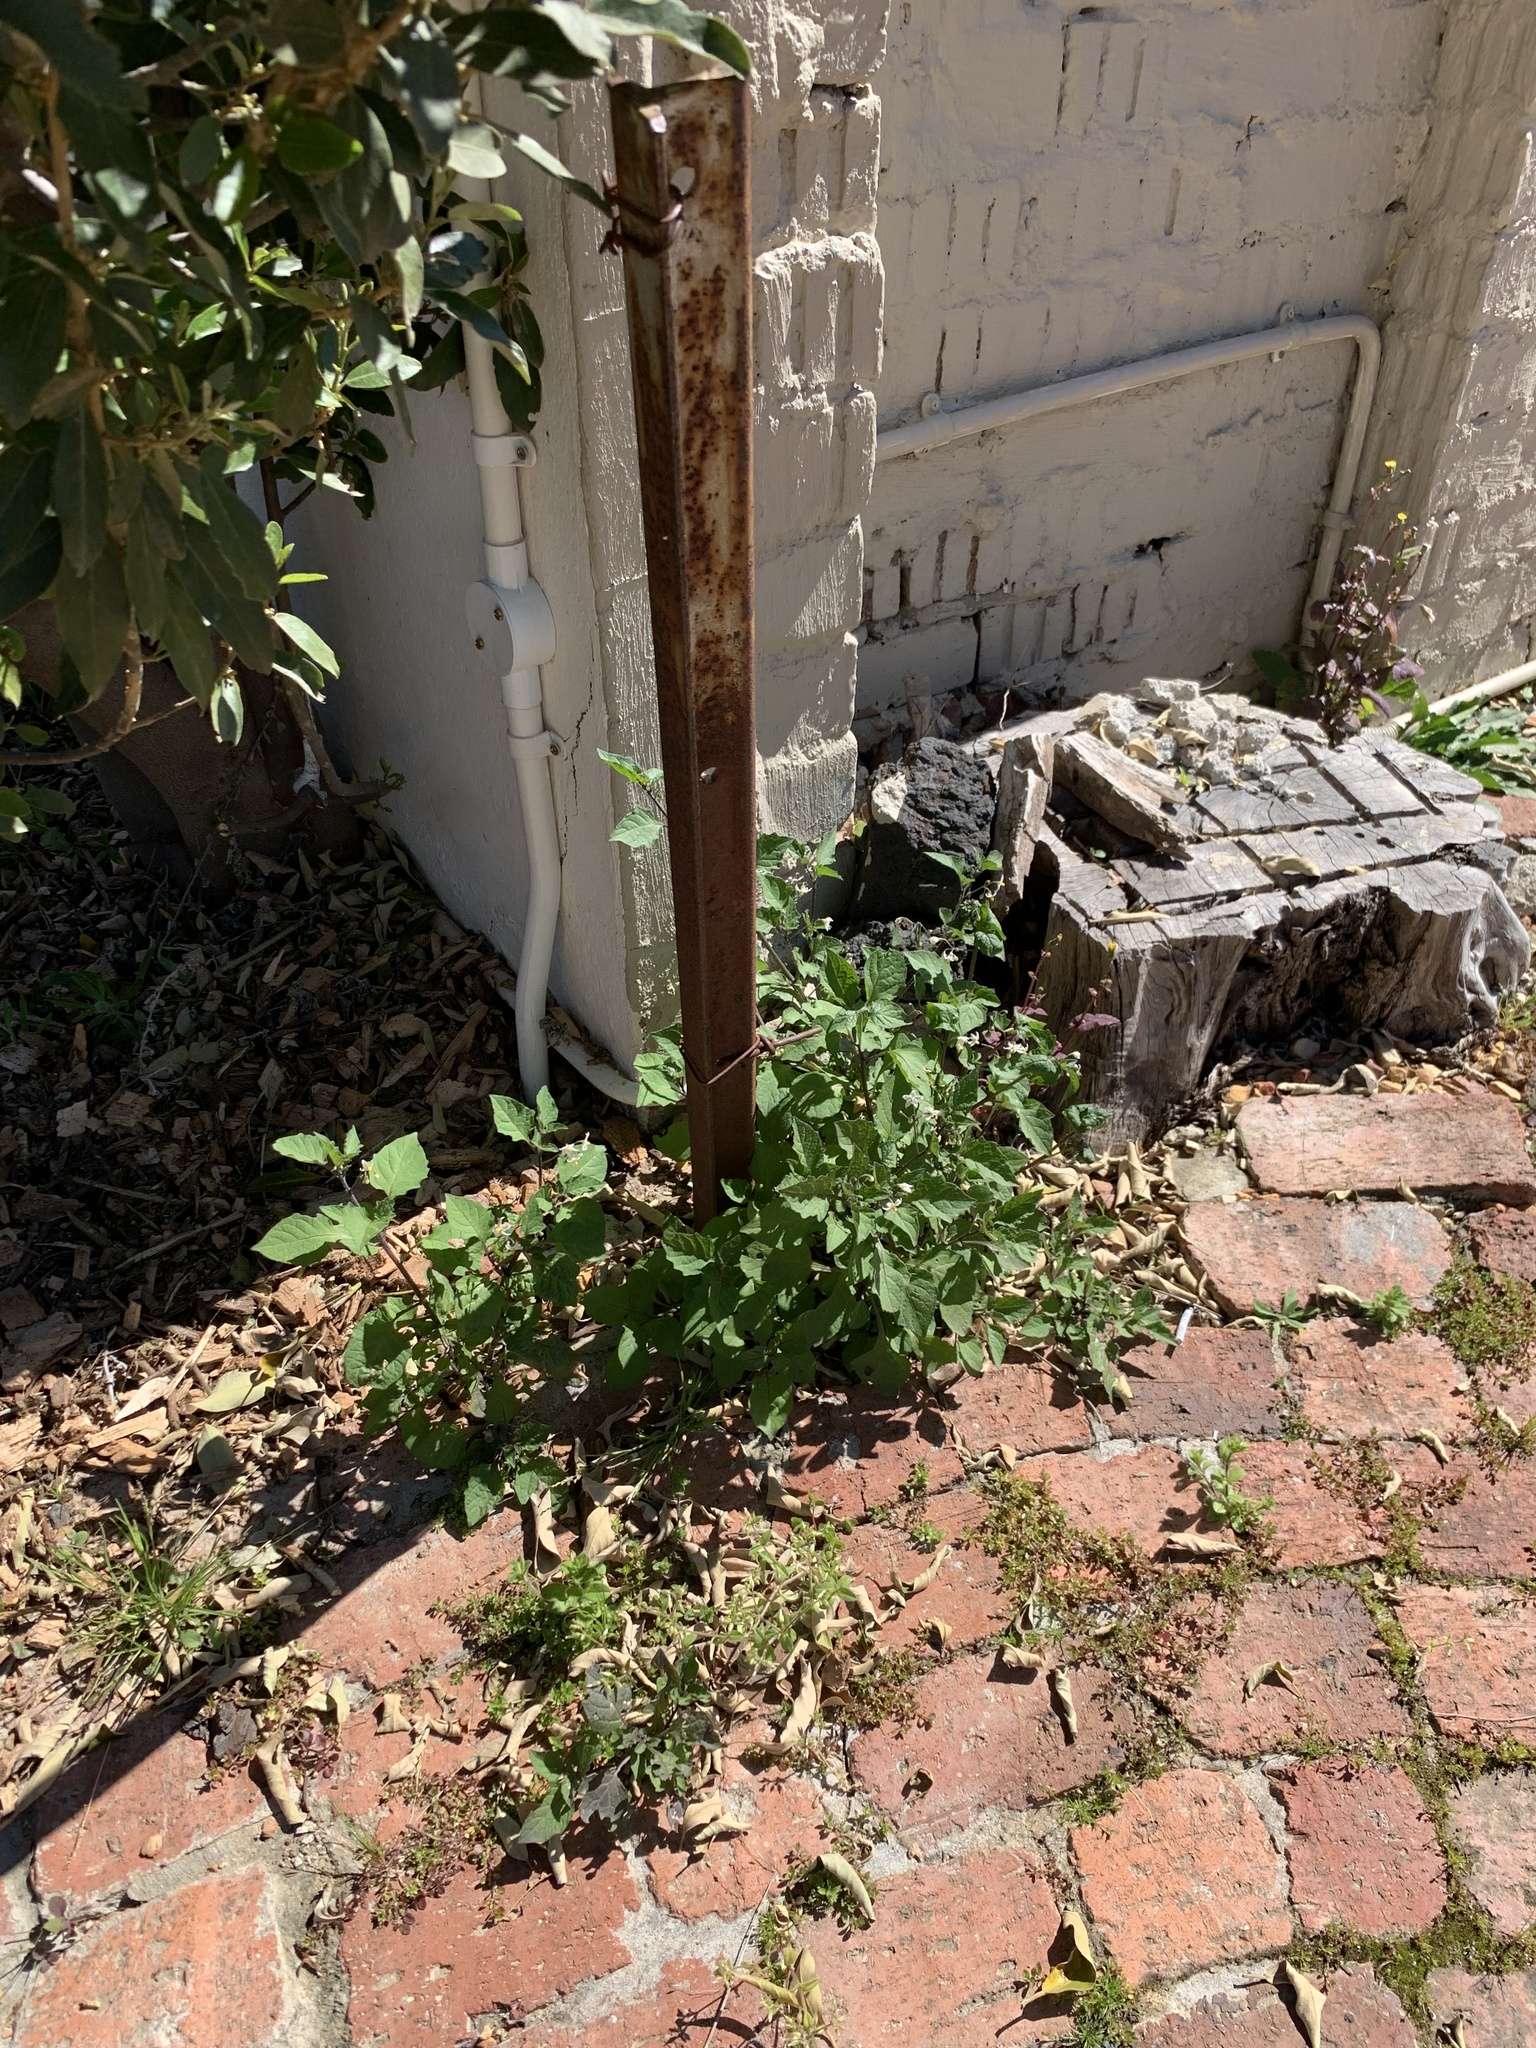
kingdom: Plantae
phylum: Tracheophyta
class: Magnoliopsida
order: Solanales
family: Solanaceae
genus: Solanum
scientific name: Solanum nigrum
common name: Black nightshade
